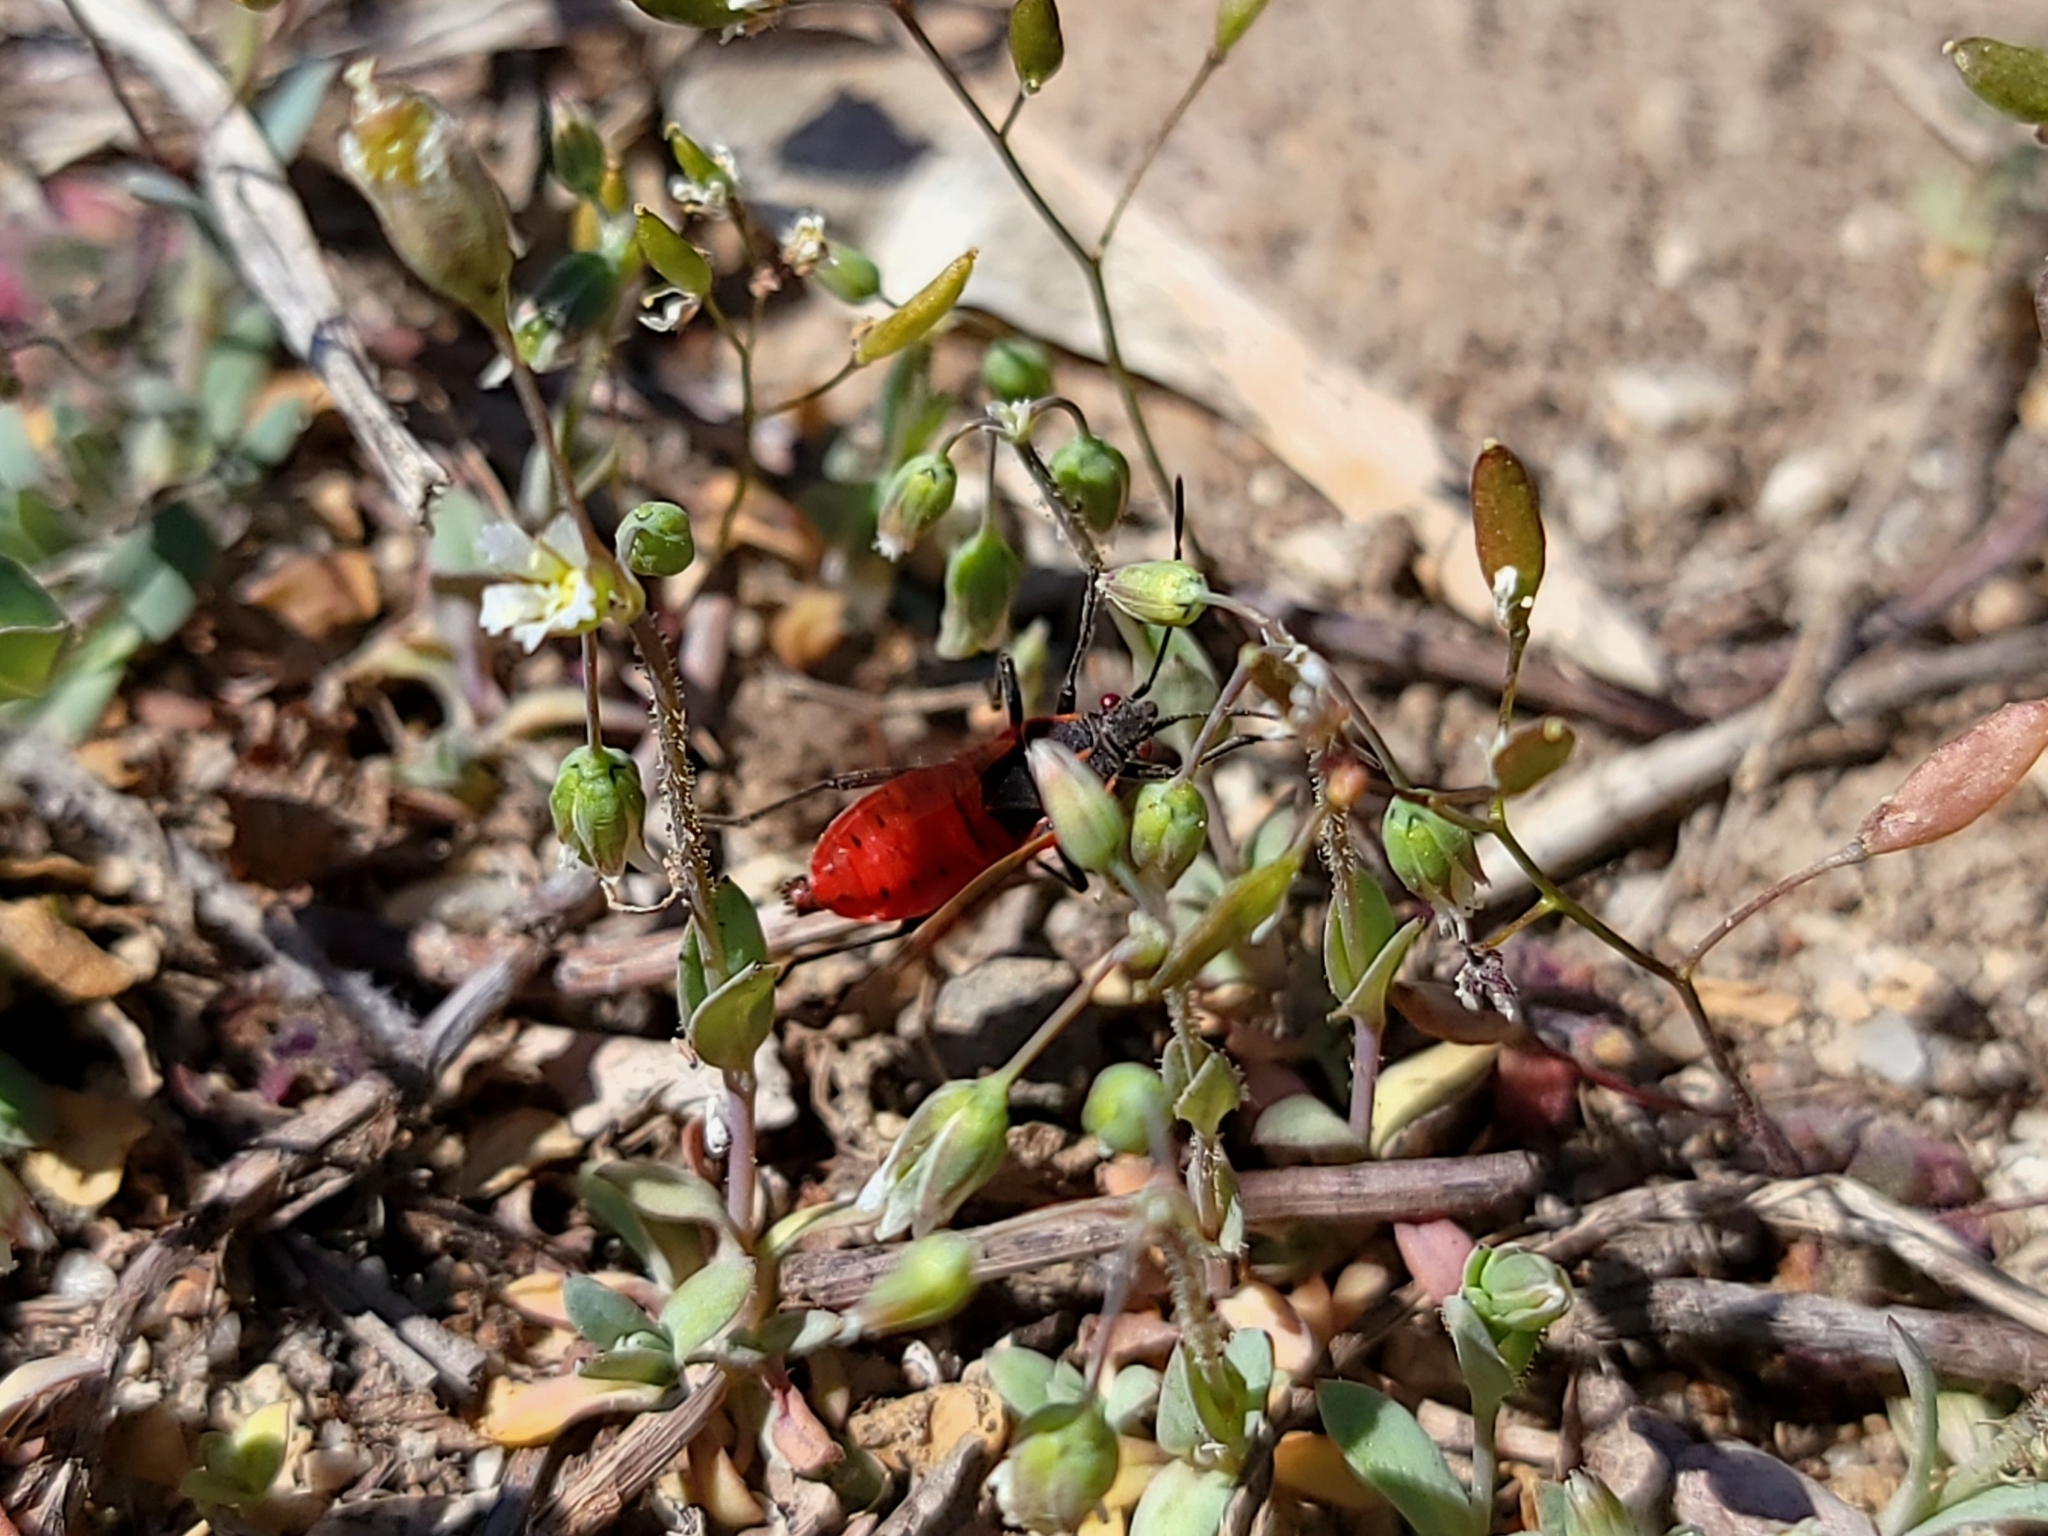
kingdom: Animalia
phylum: Arthropoda
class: Insecta
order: Hemiptera
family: Rhopalidae
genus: Boisea
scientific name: Boisea rubrolineata
